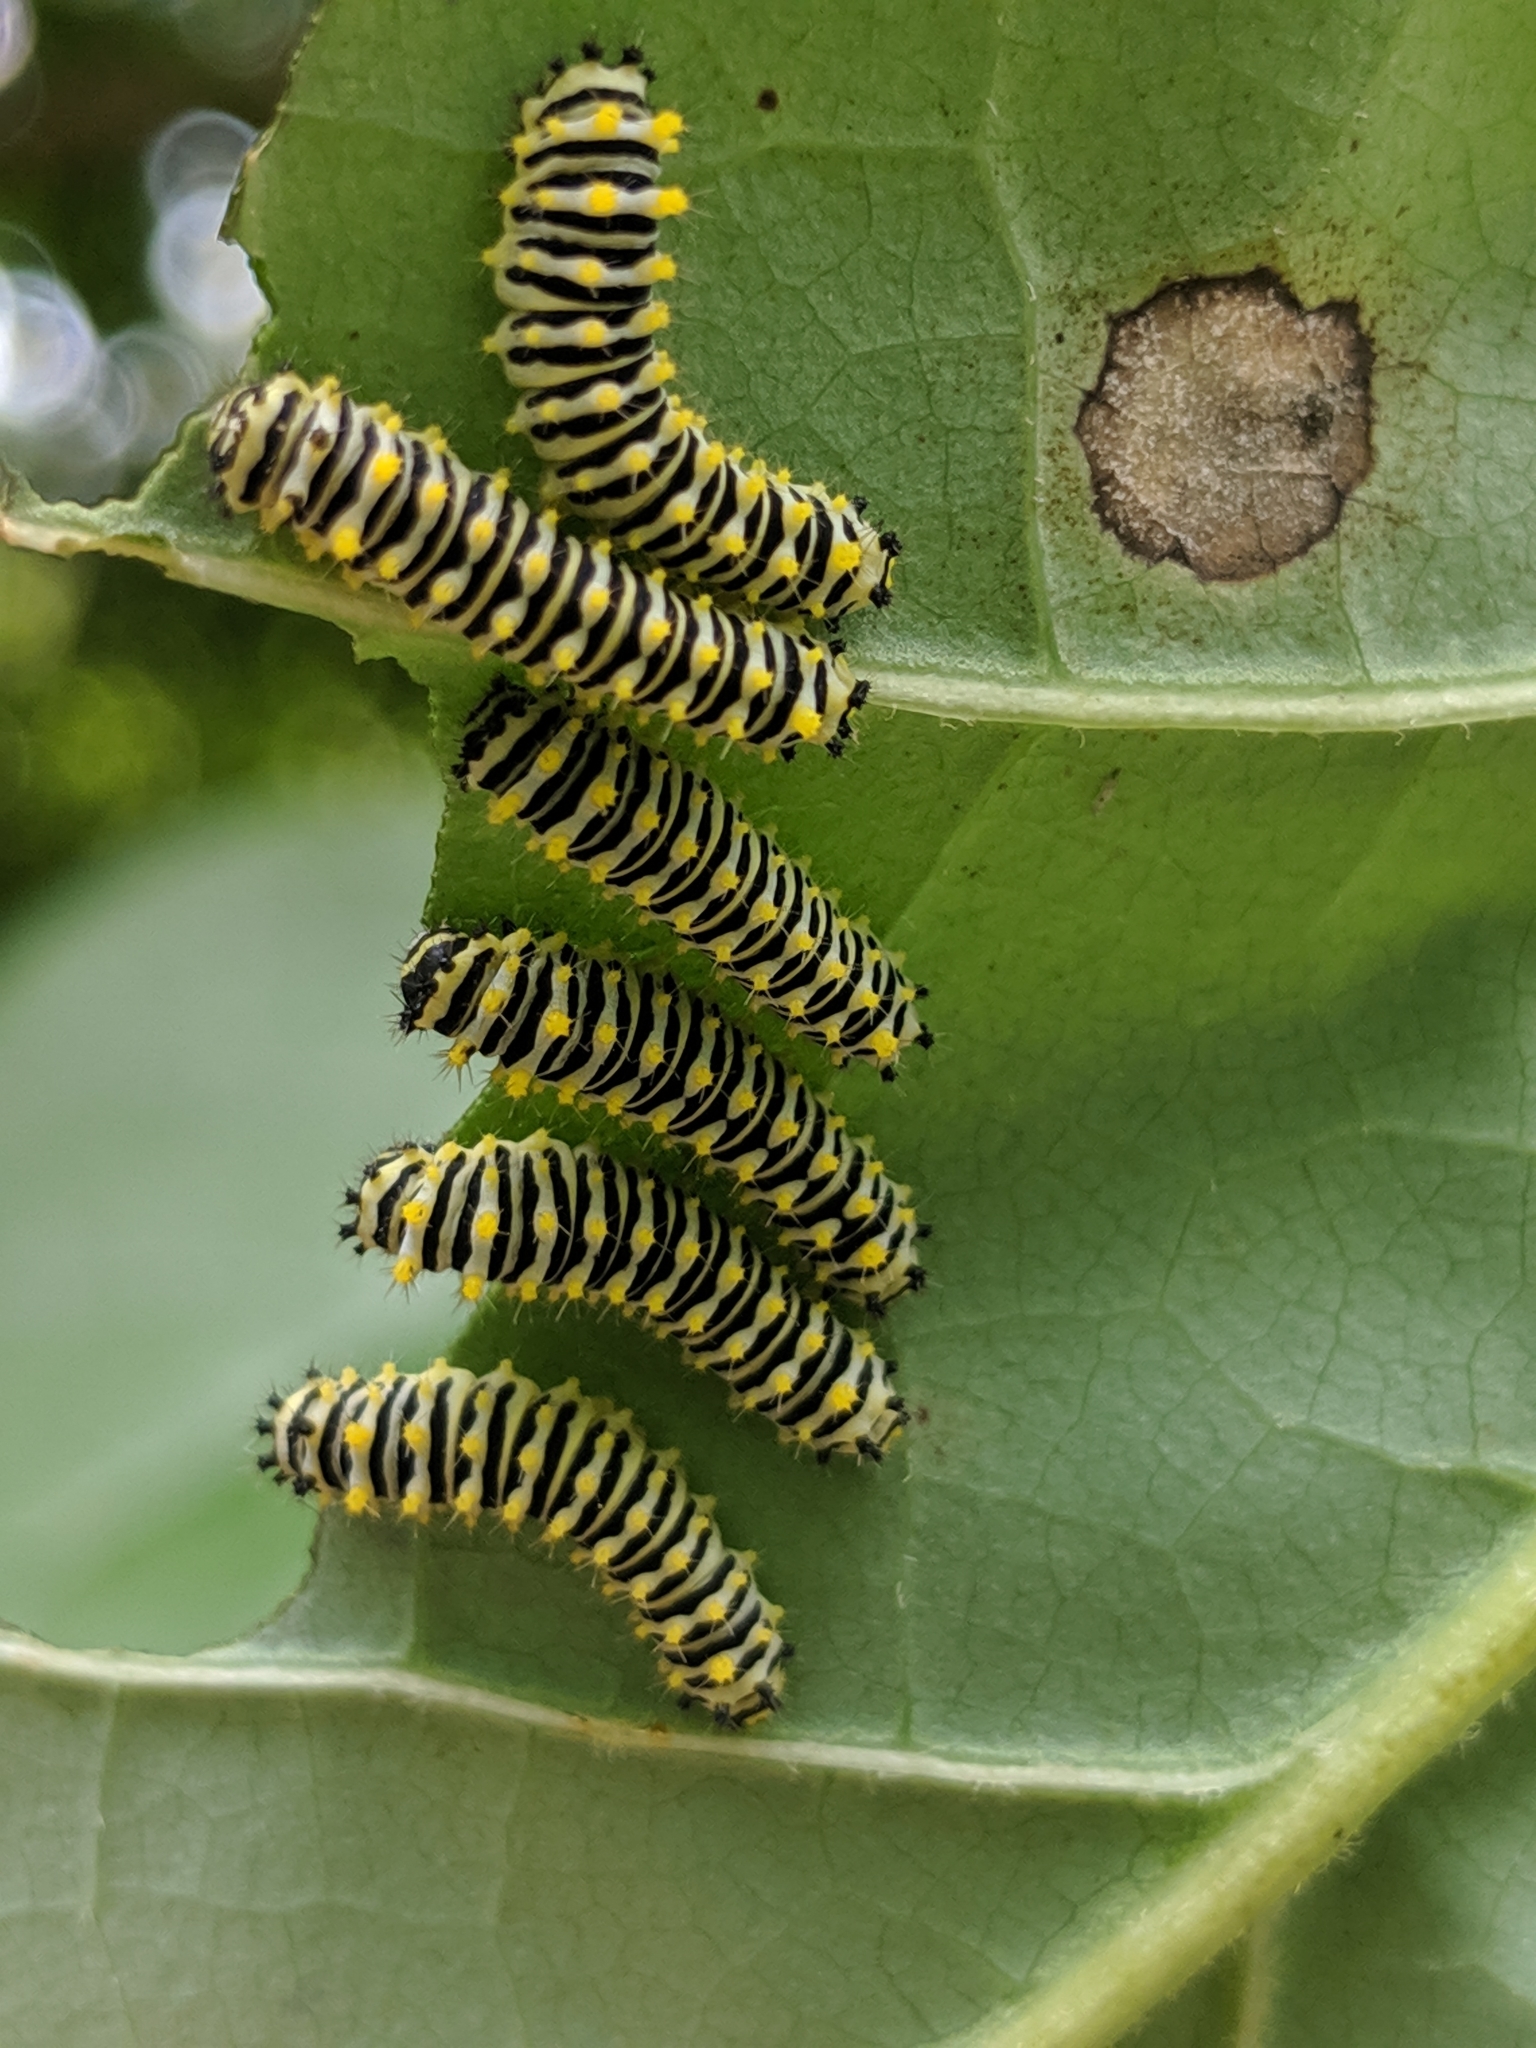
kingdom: Animalia
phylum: Arthropoda
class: Insecta
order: Lepidoptera
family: Saturniidae
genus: Callosamia
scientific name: Callosamia promethea
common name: Promethea silkmoth
